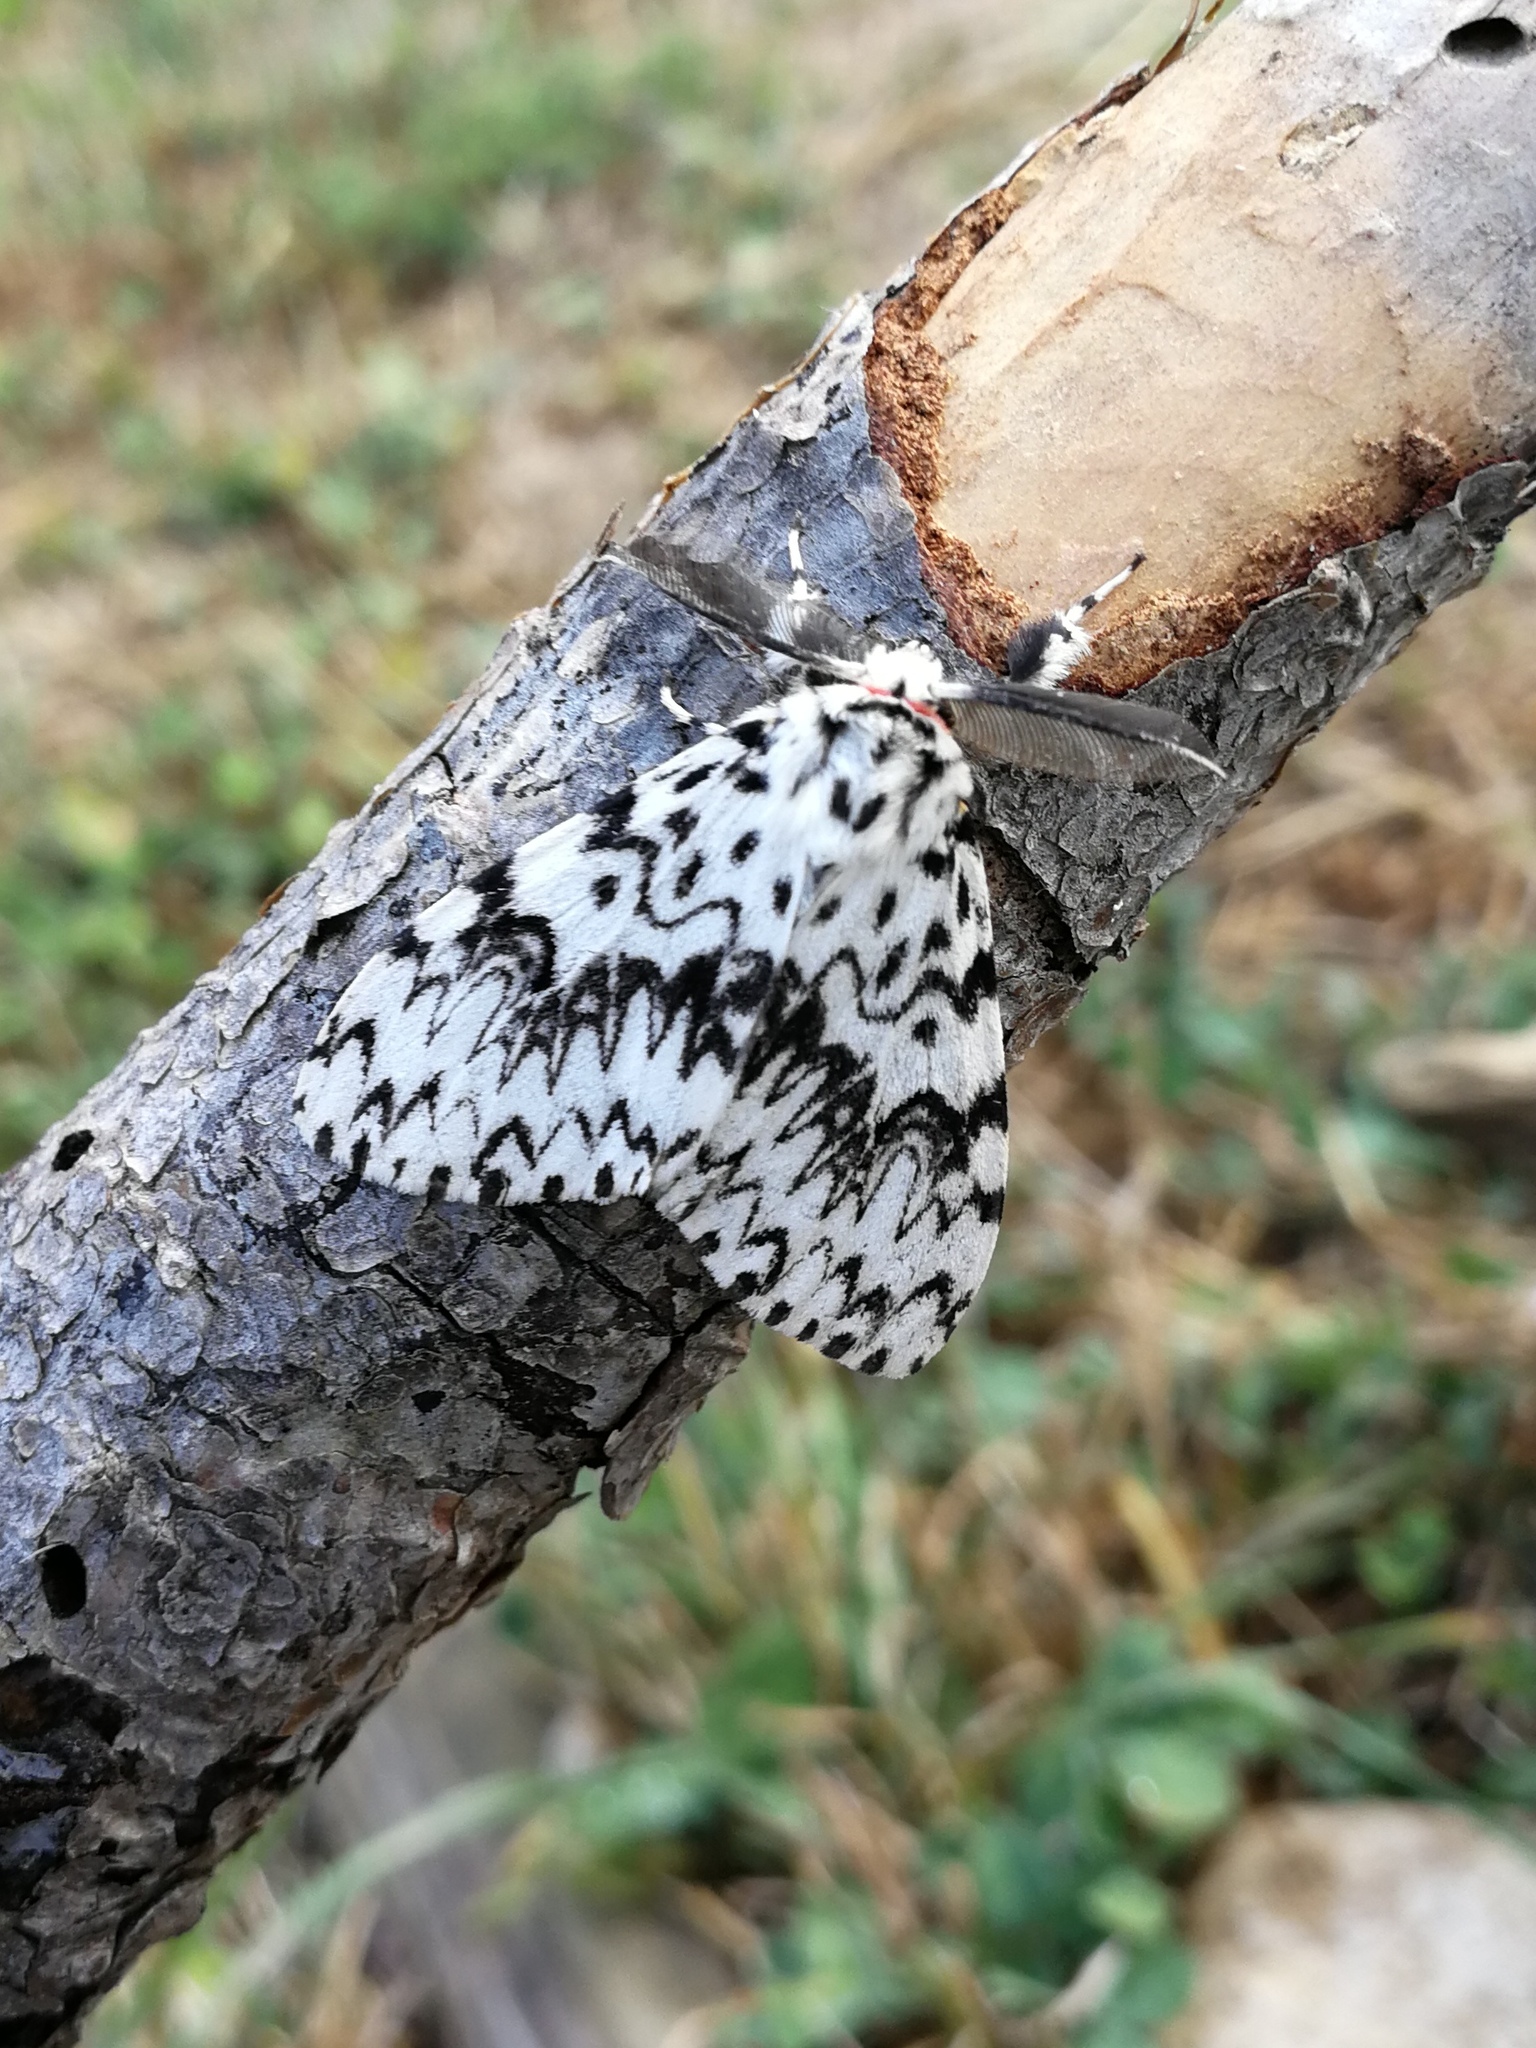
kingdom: Animalia
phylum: Arthropoda
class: Insecta
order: Lepidoptera
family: Erebidae
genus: Lymantria
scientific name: Lymantria monacha
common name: Black arches
